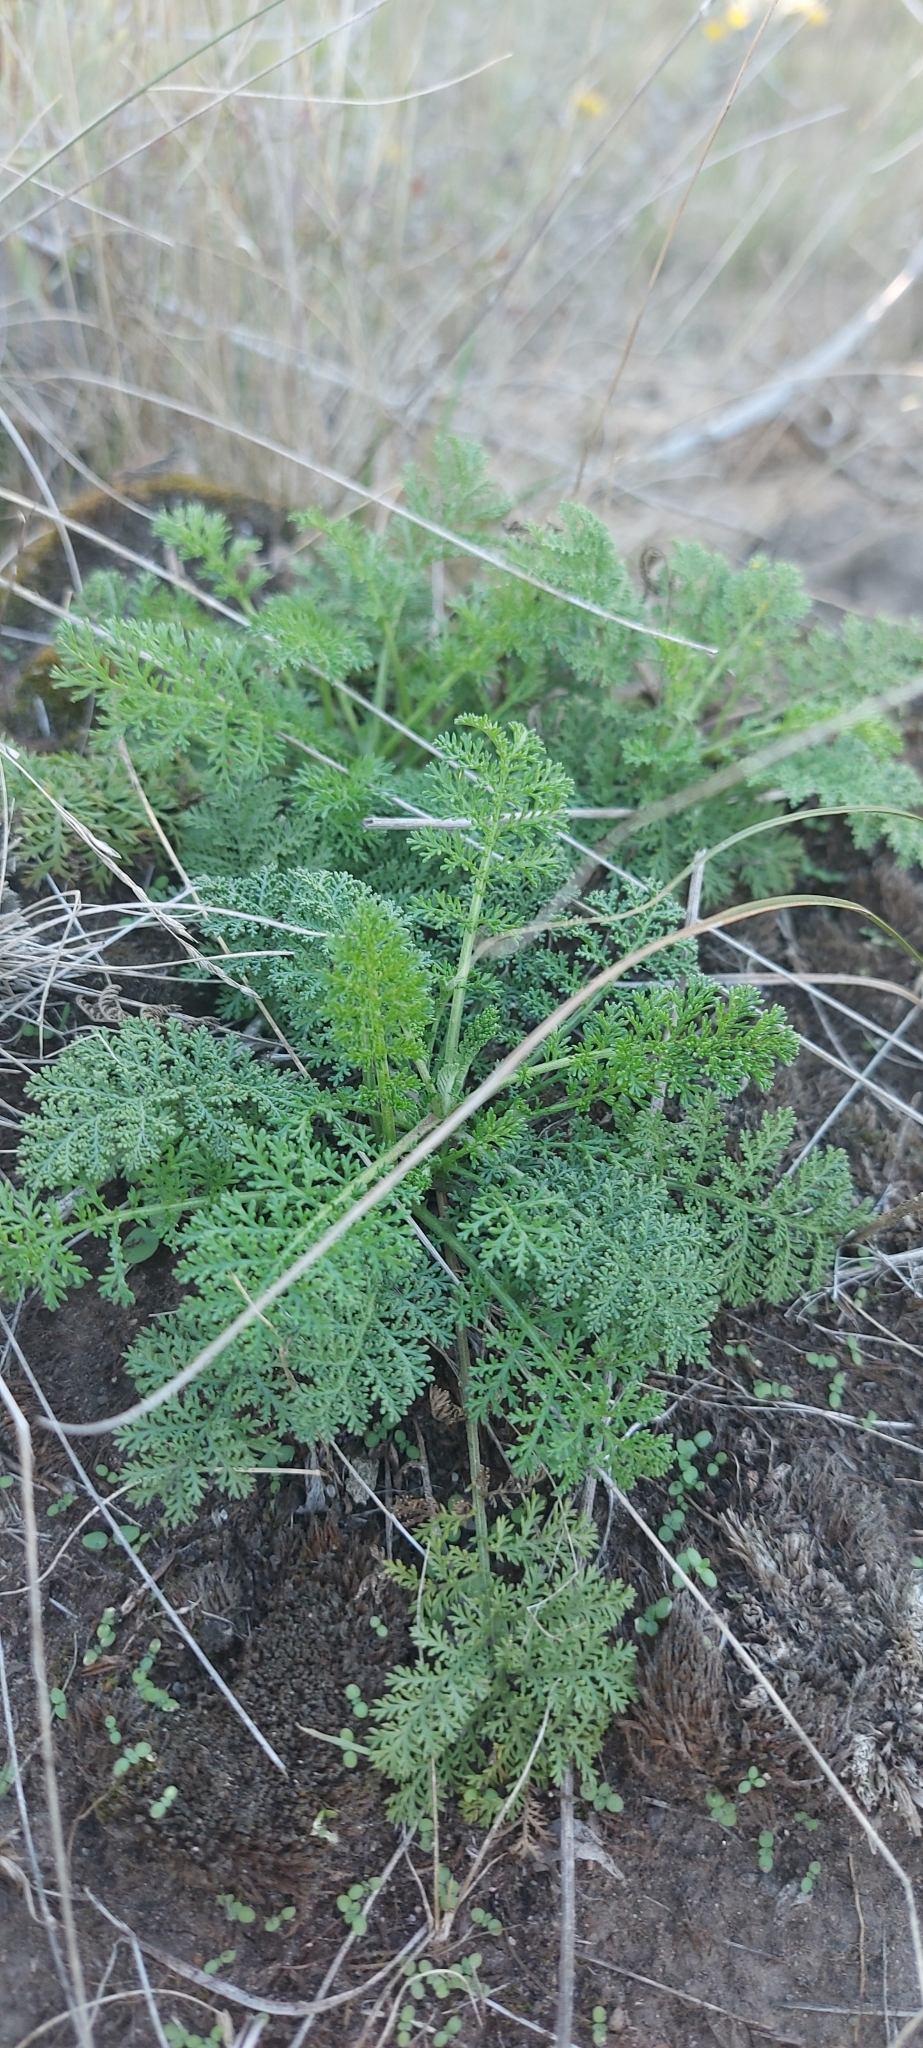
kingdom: Plantae
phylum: Tracheophyta
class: Magnoliopsida
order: Asterales
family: Asteraceae
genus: Achillea
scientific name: Achillea nobilis
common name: Noble yarrow
